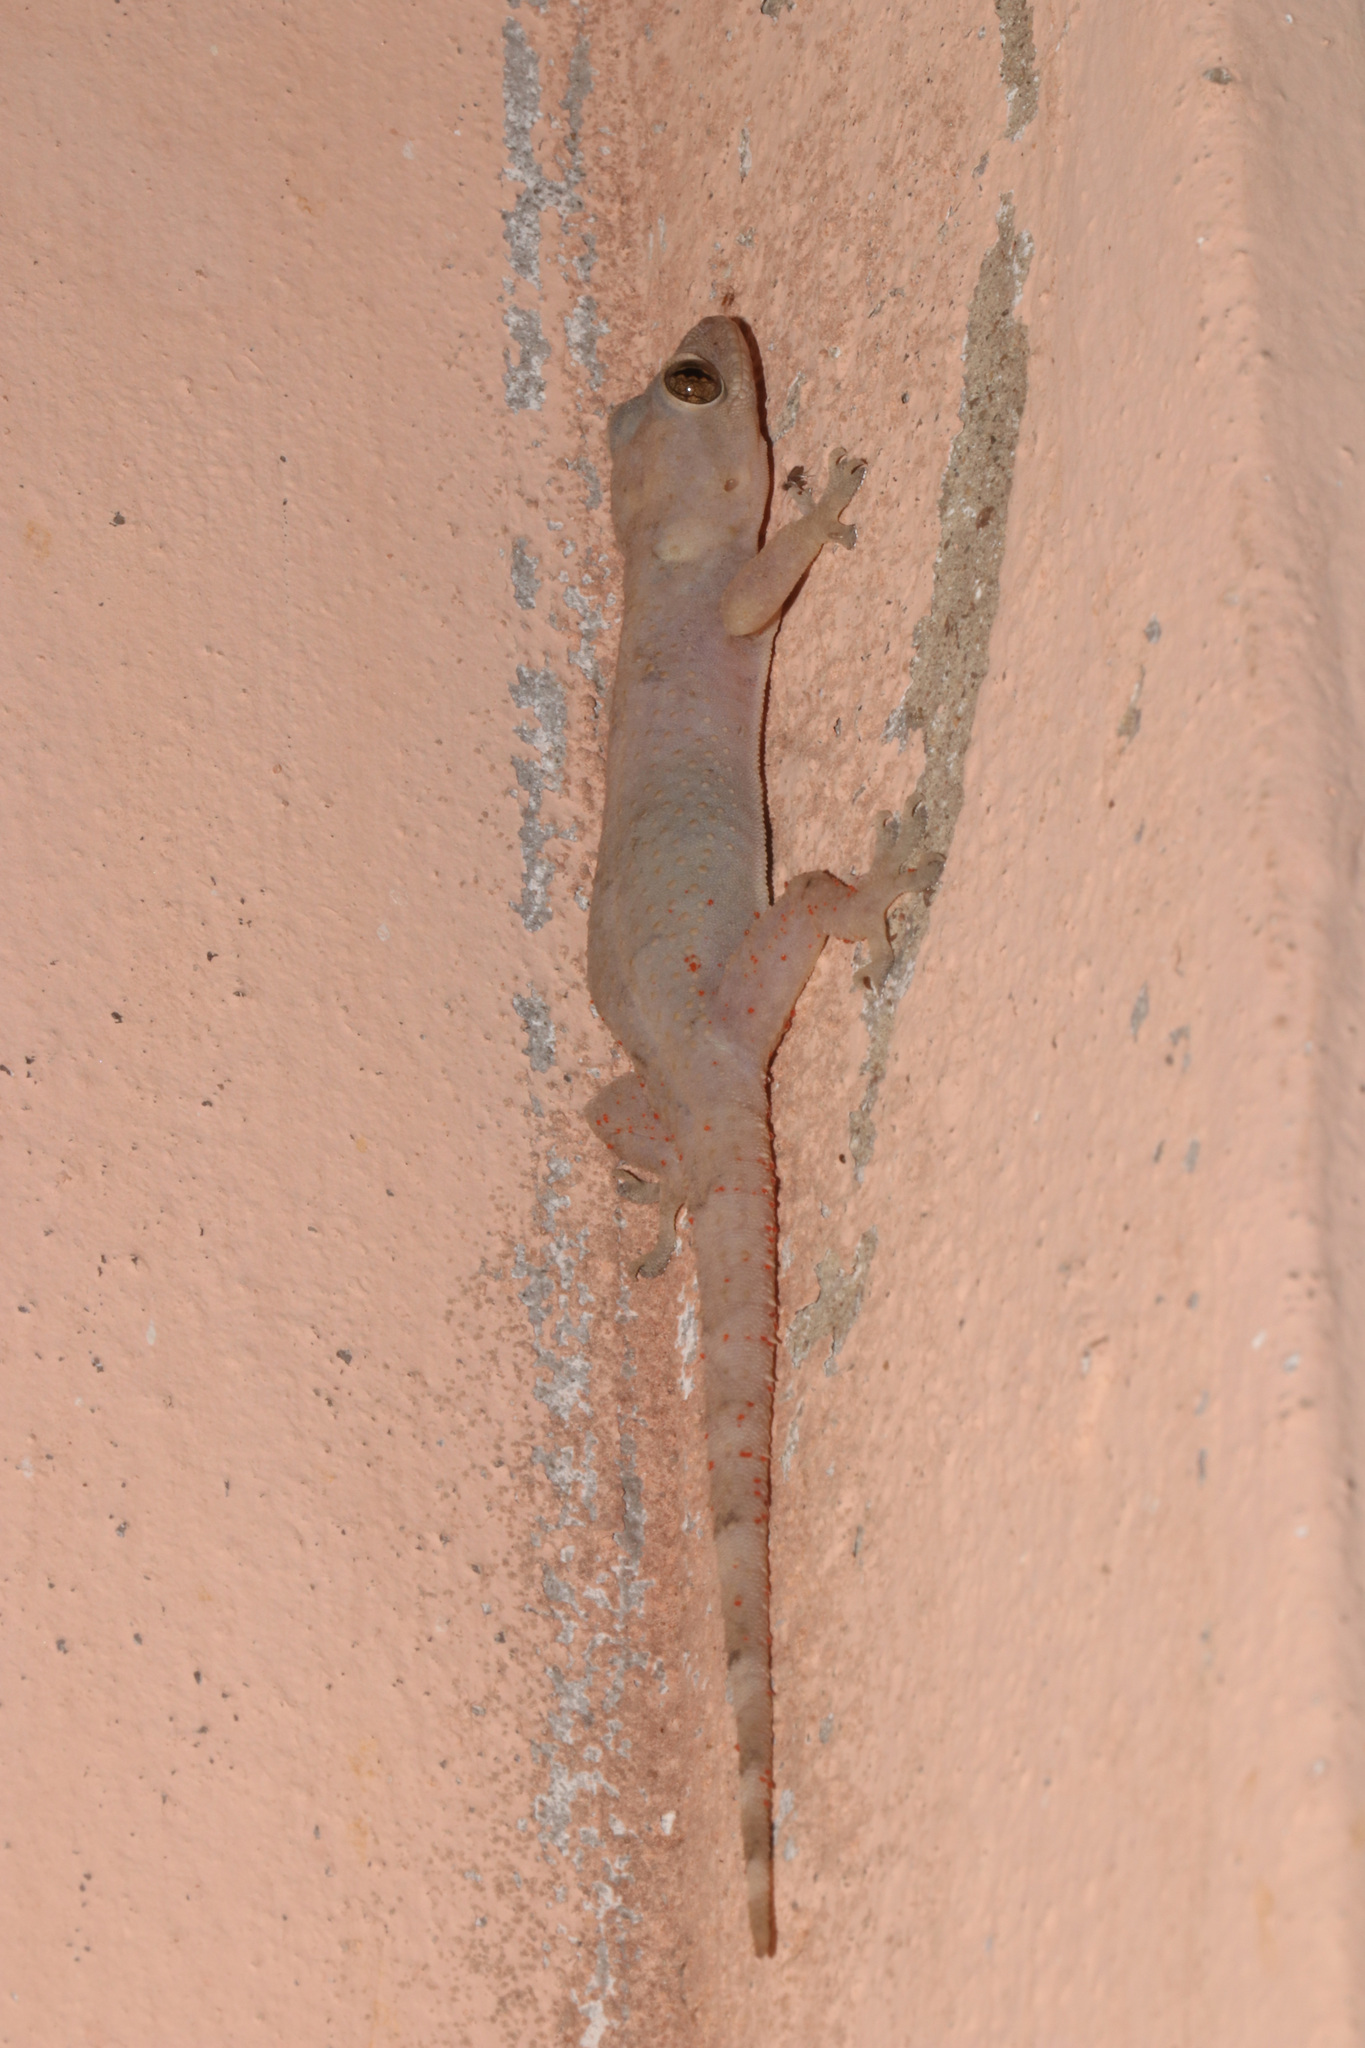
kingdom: Animalia
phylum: Chordata
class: Squamata
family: Gekkonidae
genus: Hemidactylus
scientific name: Hemidactylus mabouia
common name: House gecko
